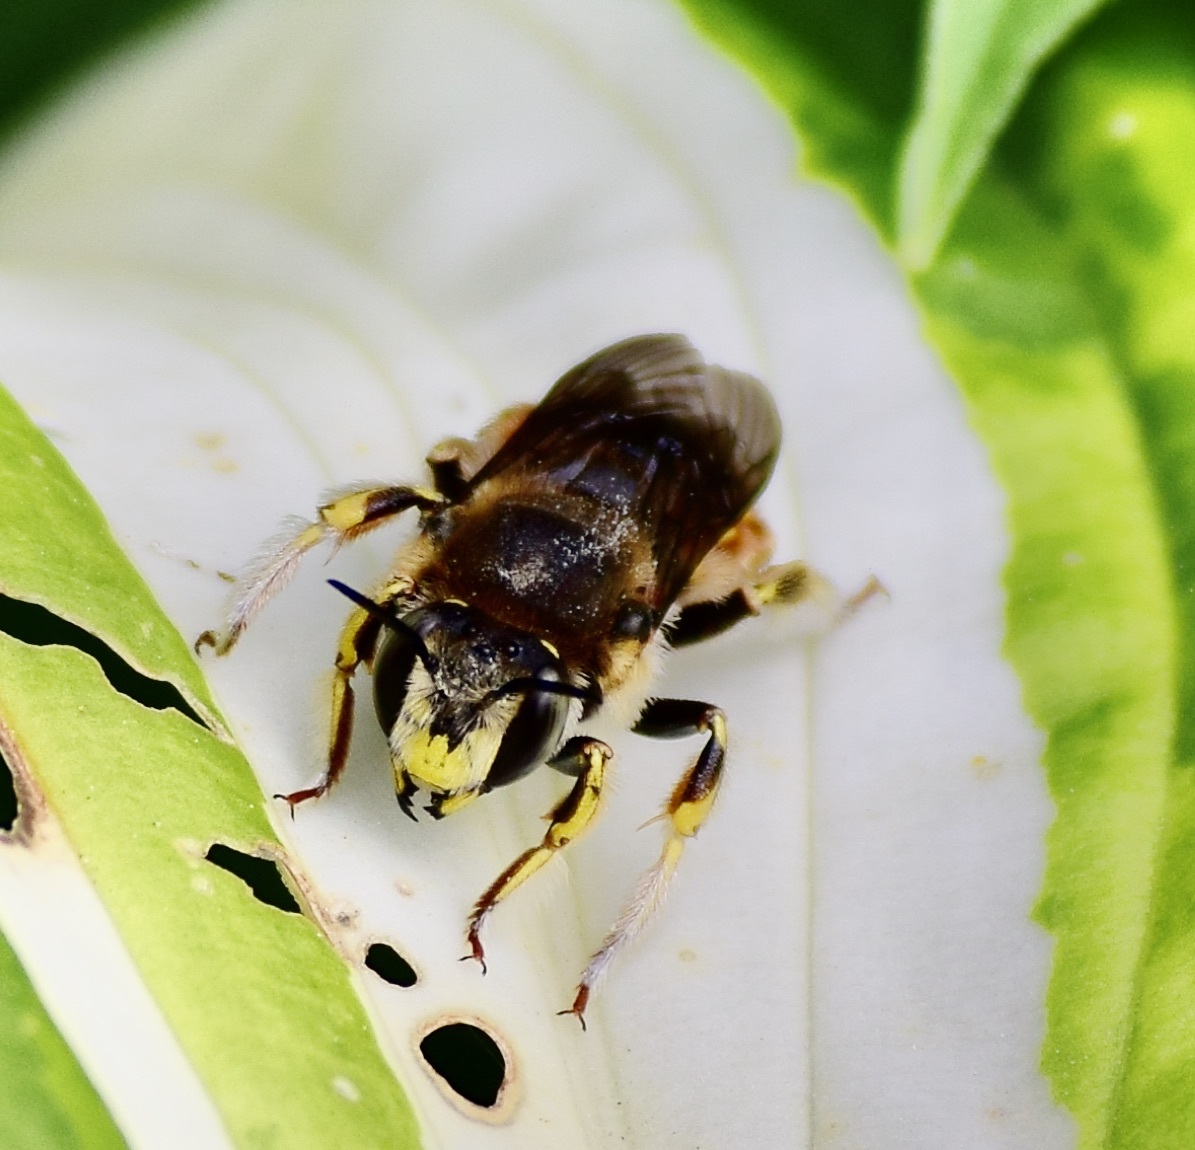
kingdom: Animalia
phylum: Arthropoda
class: Insecta
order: Hymenoptera
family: Megachilidae
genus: Anthidium
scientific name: Anthidium manicatum
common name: Wool carder bee
